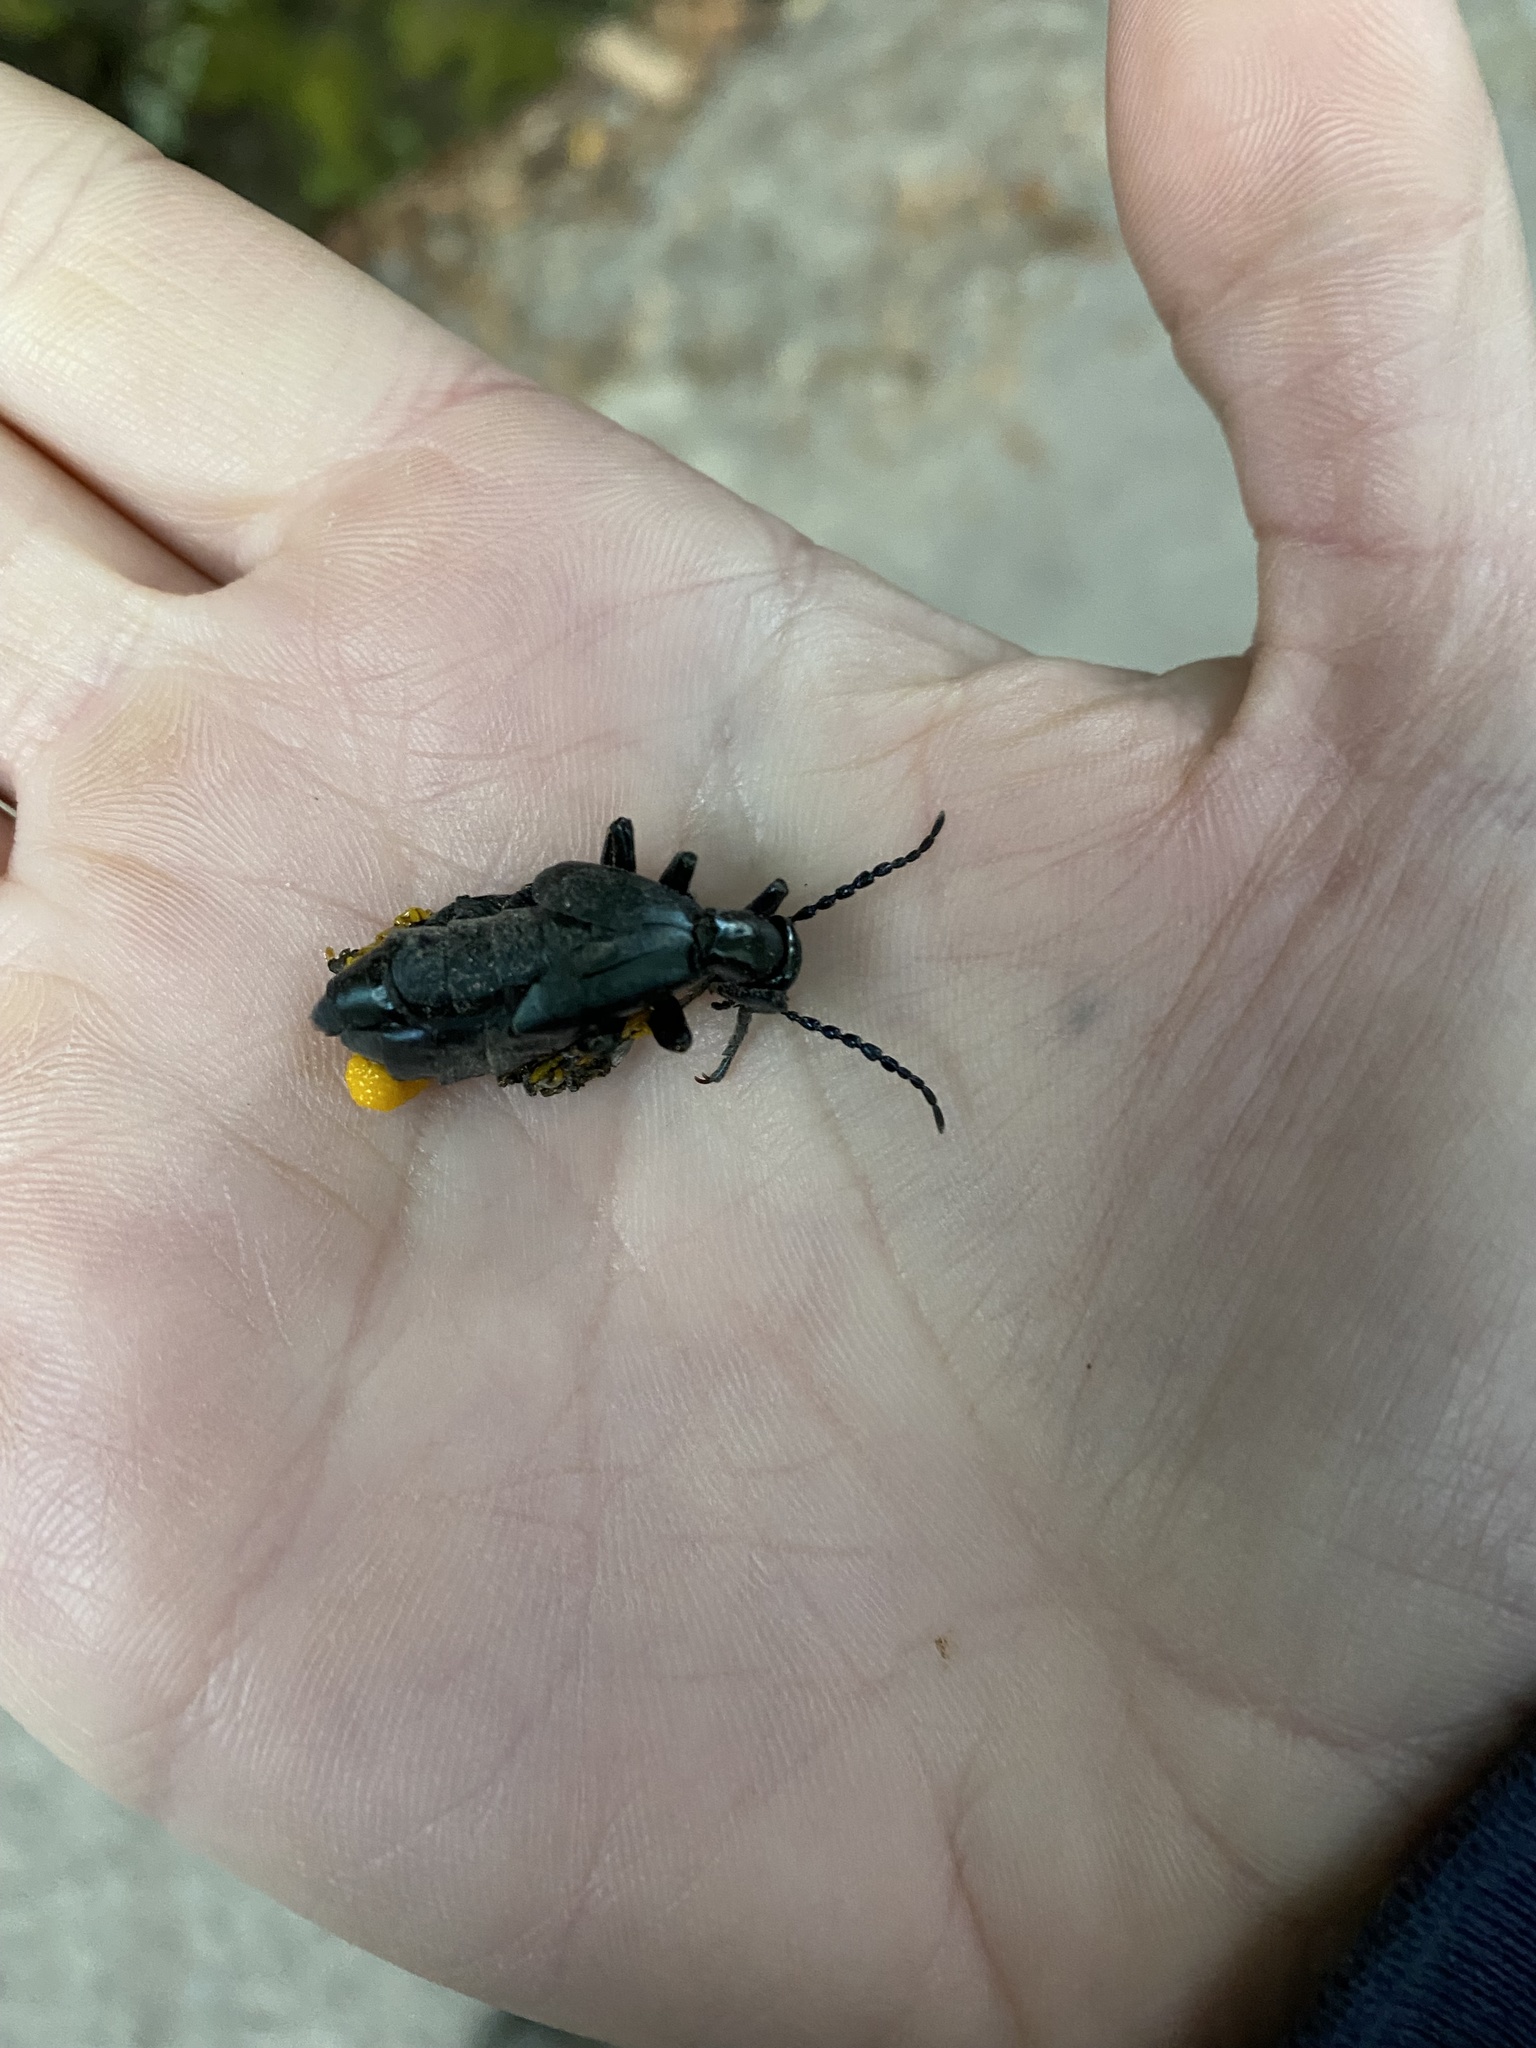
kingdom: Animalia
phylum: Arthropoda
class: Insecta
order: Coleoptera
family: Meloidae
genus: Meloe
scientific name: Meloe tropicus
